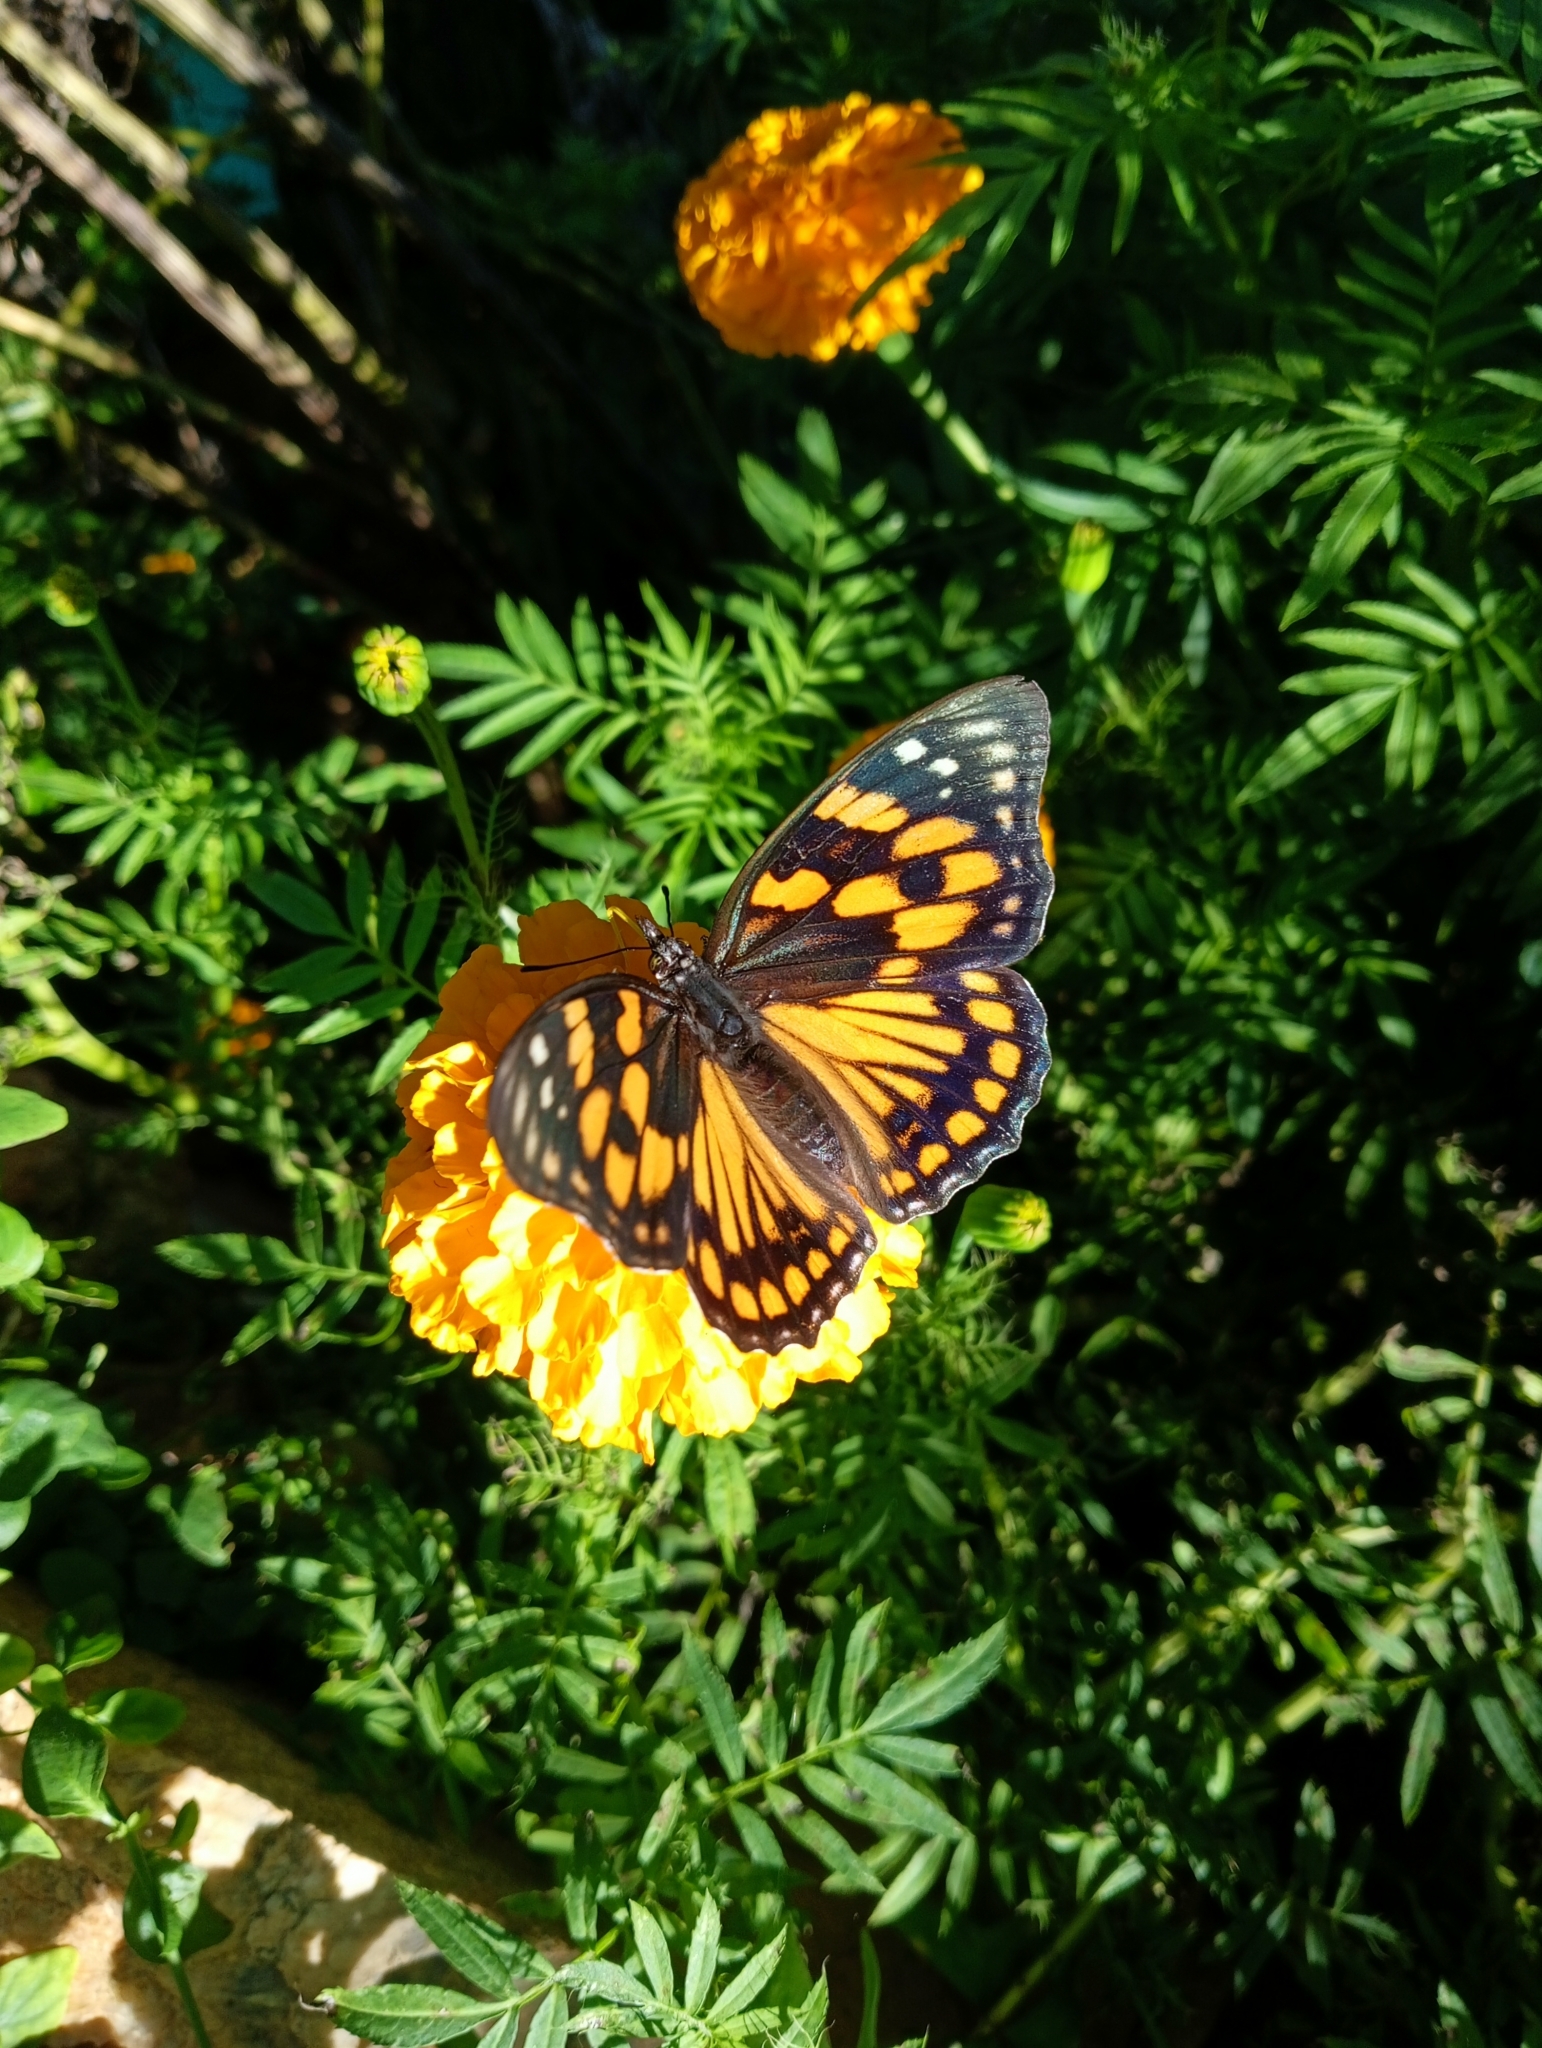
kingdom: Animalia
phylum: Arthropoda
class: Insecta
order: Lepidoptera
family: Nymphalidae
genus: Sephisa
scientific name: Sephisa dichroa
